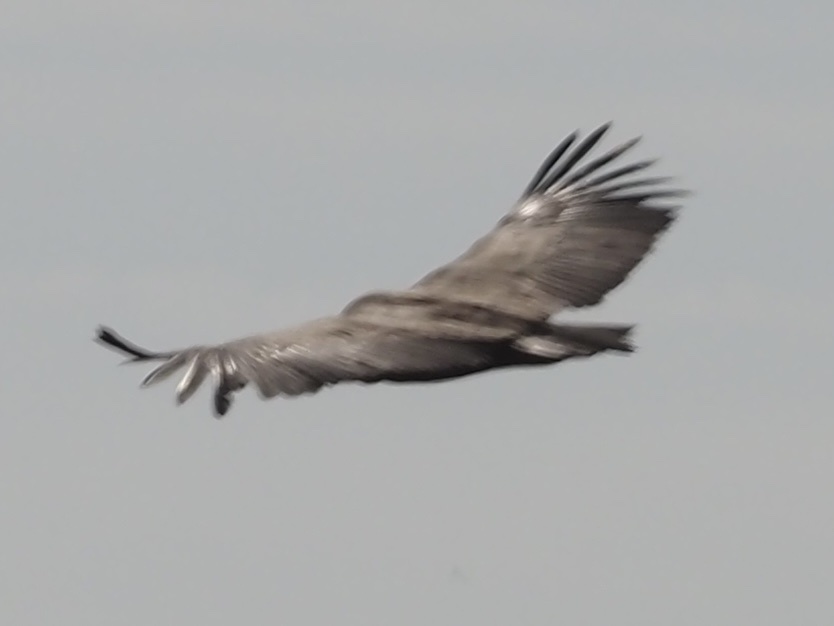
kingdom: Animalia
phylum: Chordata
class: Aves
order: Accipitriformes
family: Accipitridae
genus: Gyps
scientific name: Gyps fulvus
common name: Griffon vulture
